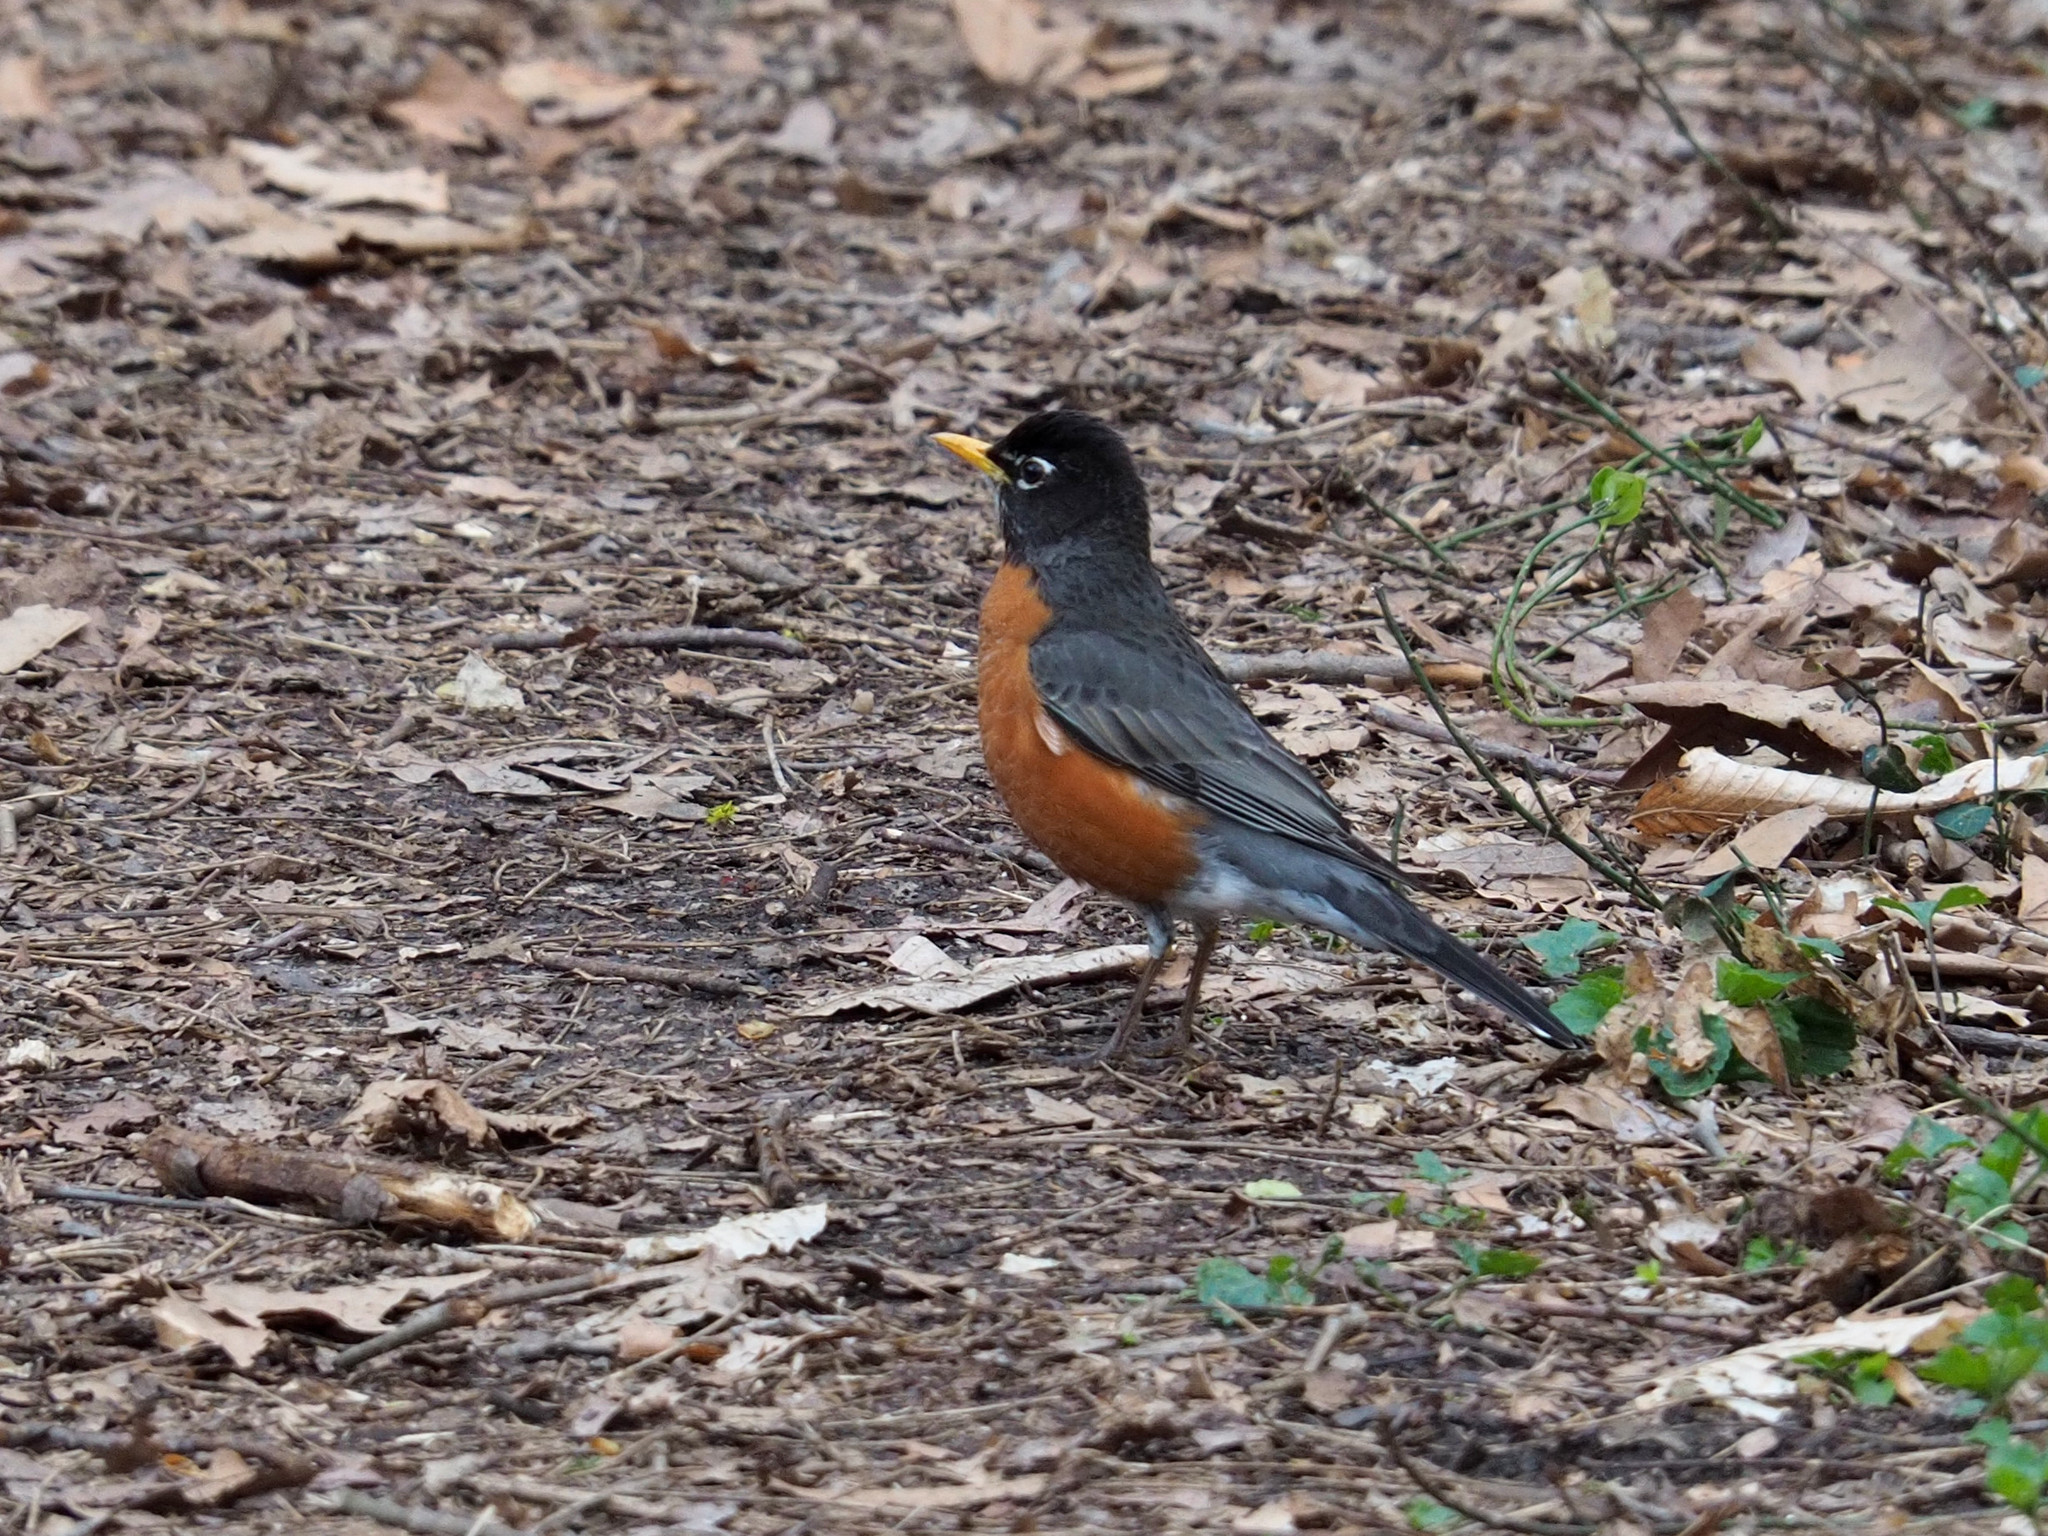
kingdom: Animalia
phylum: Chordata
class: Aves
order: Passeriformes
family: Turdidae
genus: Turdus
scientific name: Turdus migratorius
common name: American robin
